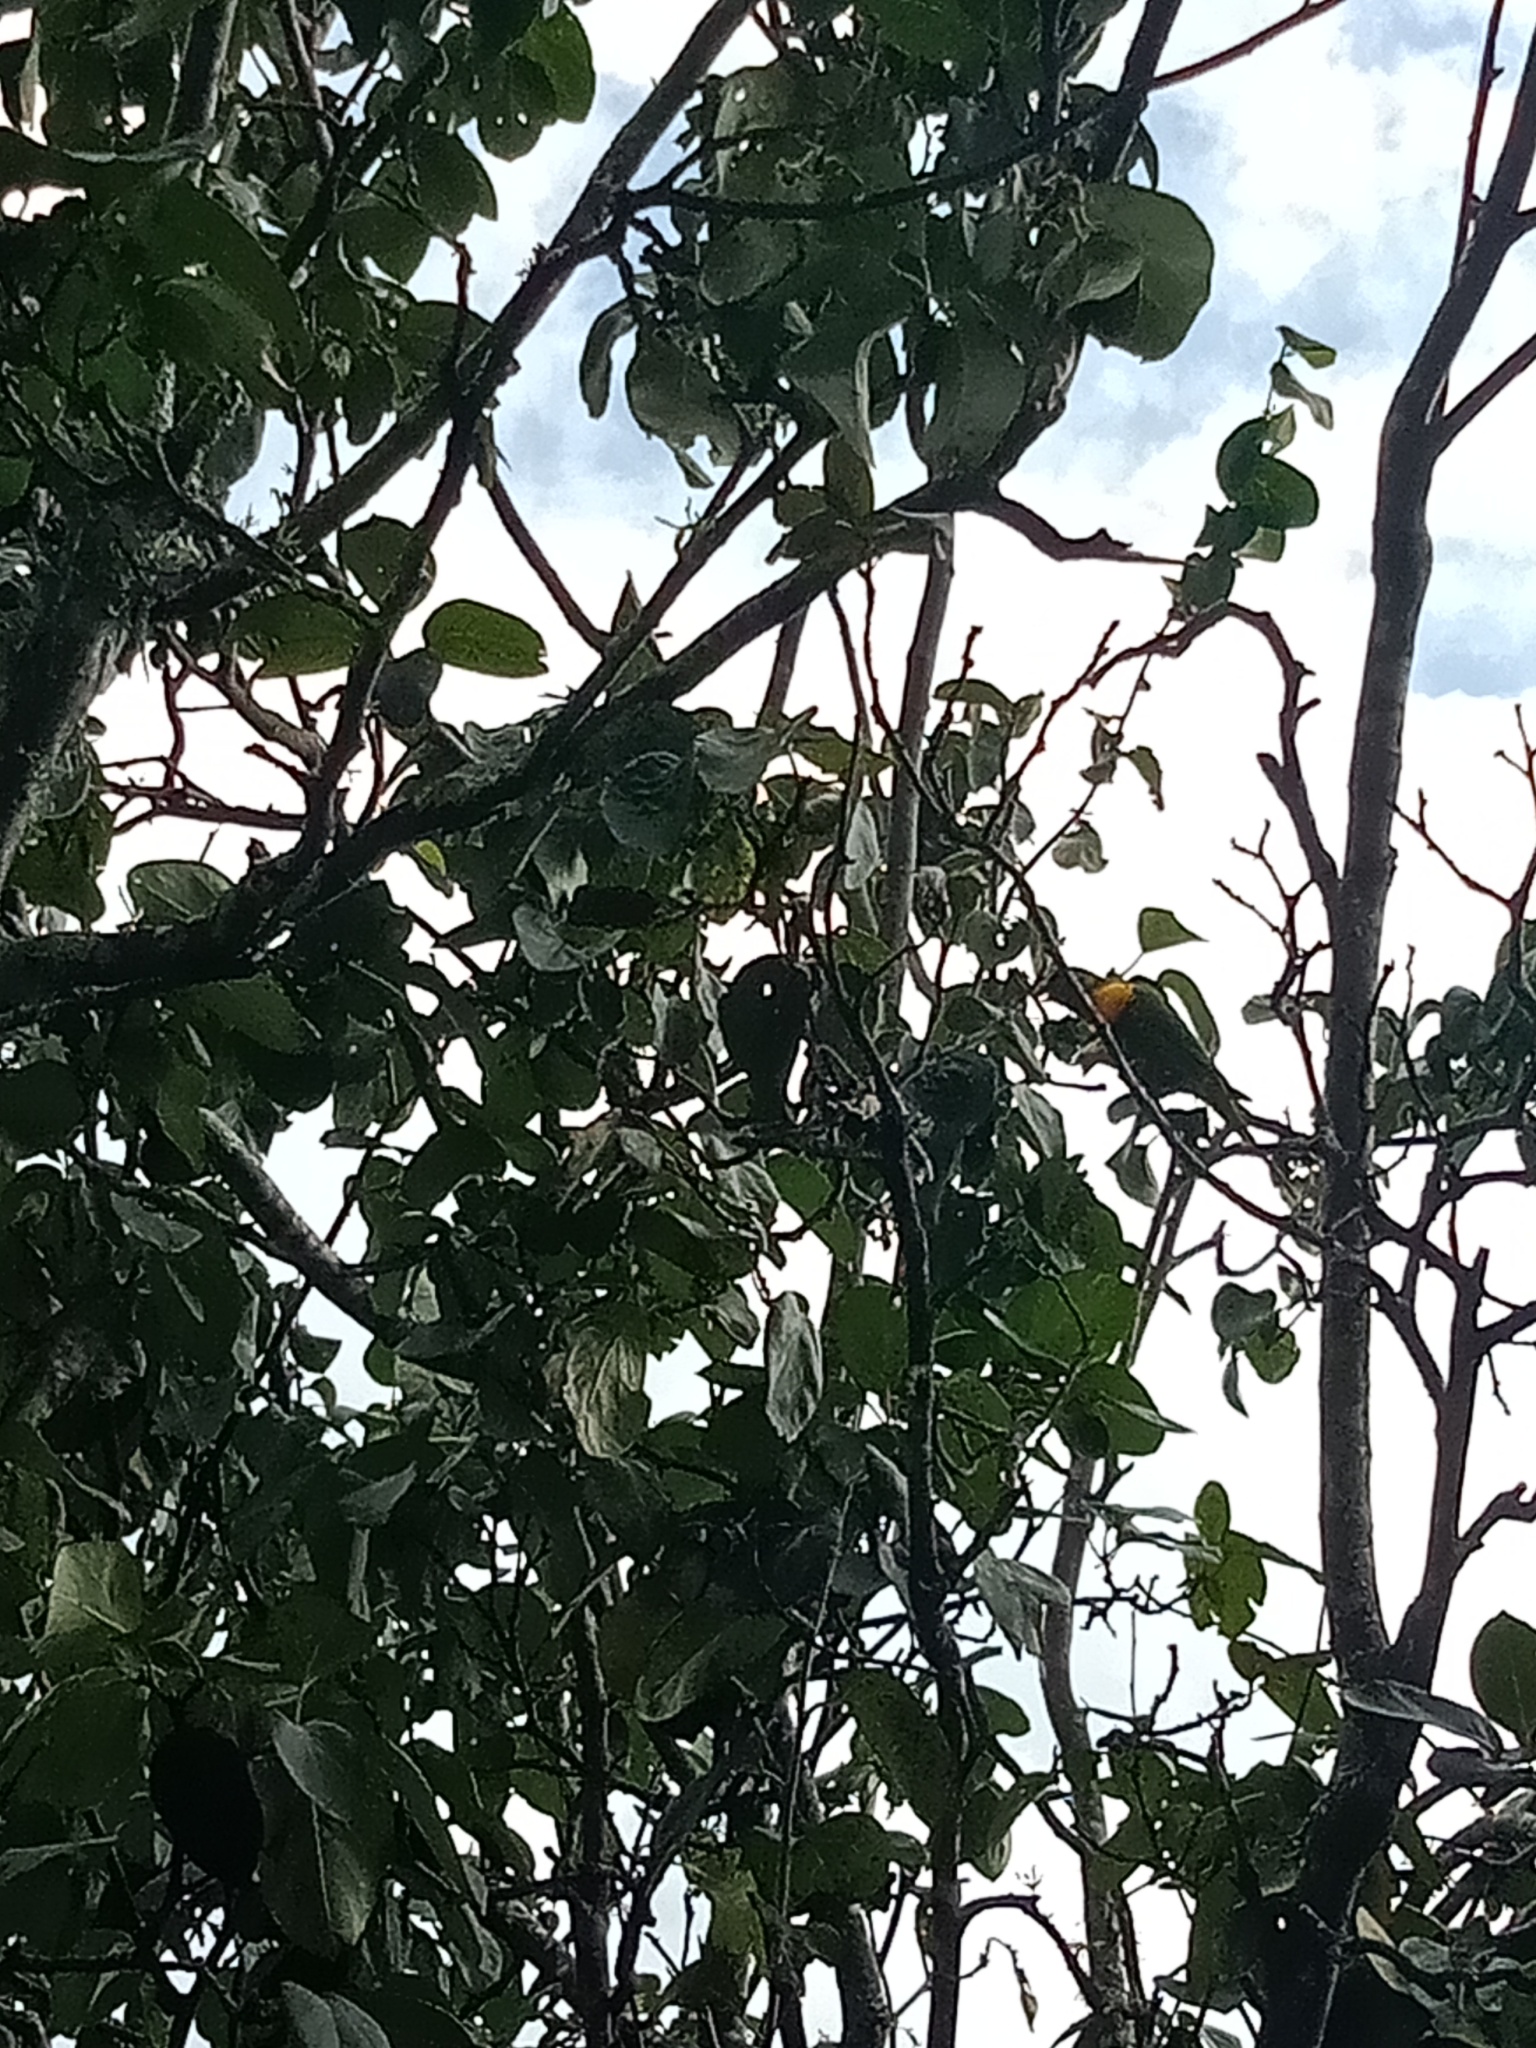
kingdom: Animalia
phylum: Chordata
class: Aves
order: Psittaciformes
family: Psittacidae
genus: Trichoglossus
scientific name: Trichoglossus haematodus
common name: Coconut lorikeet
